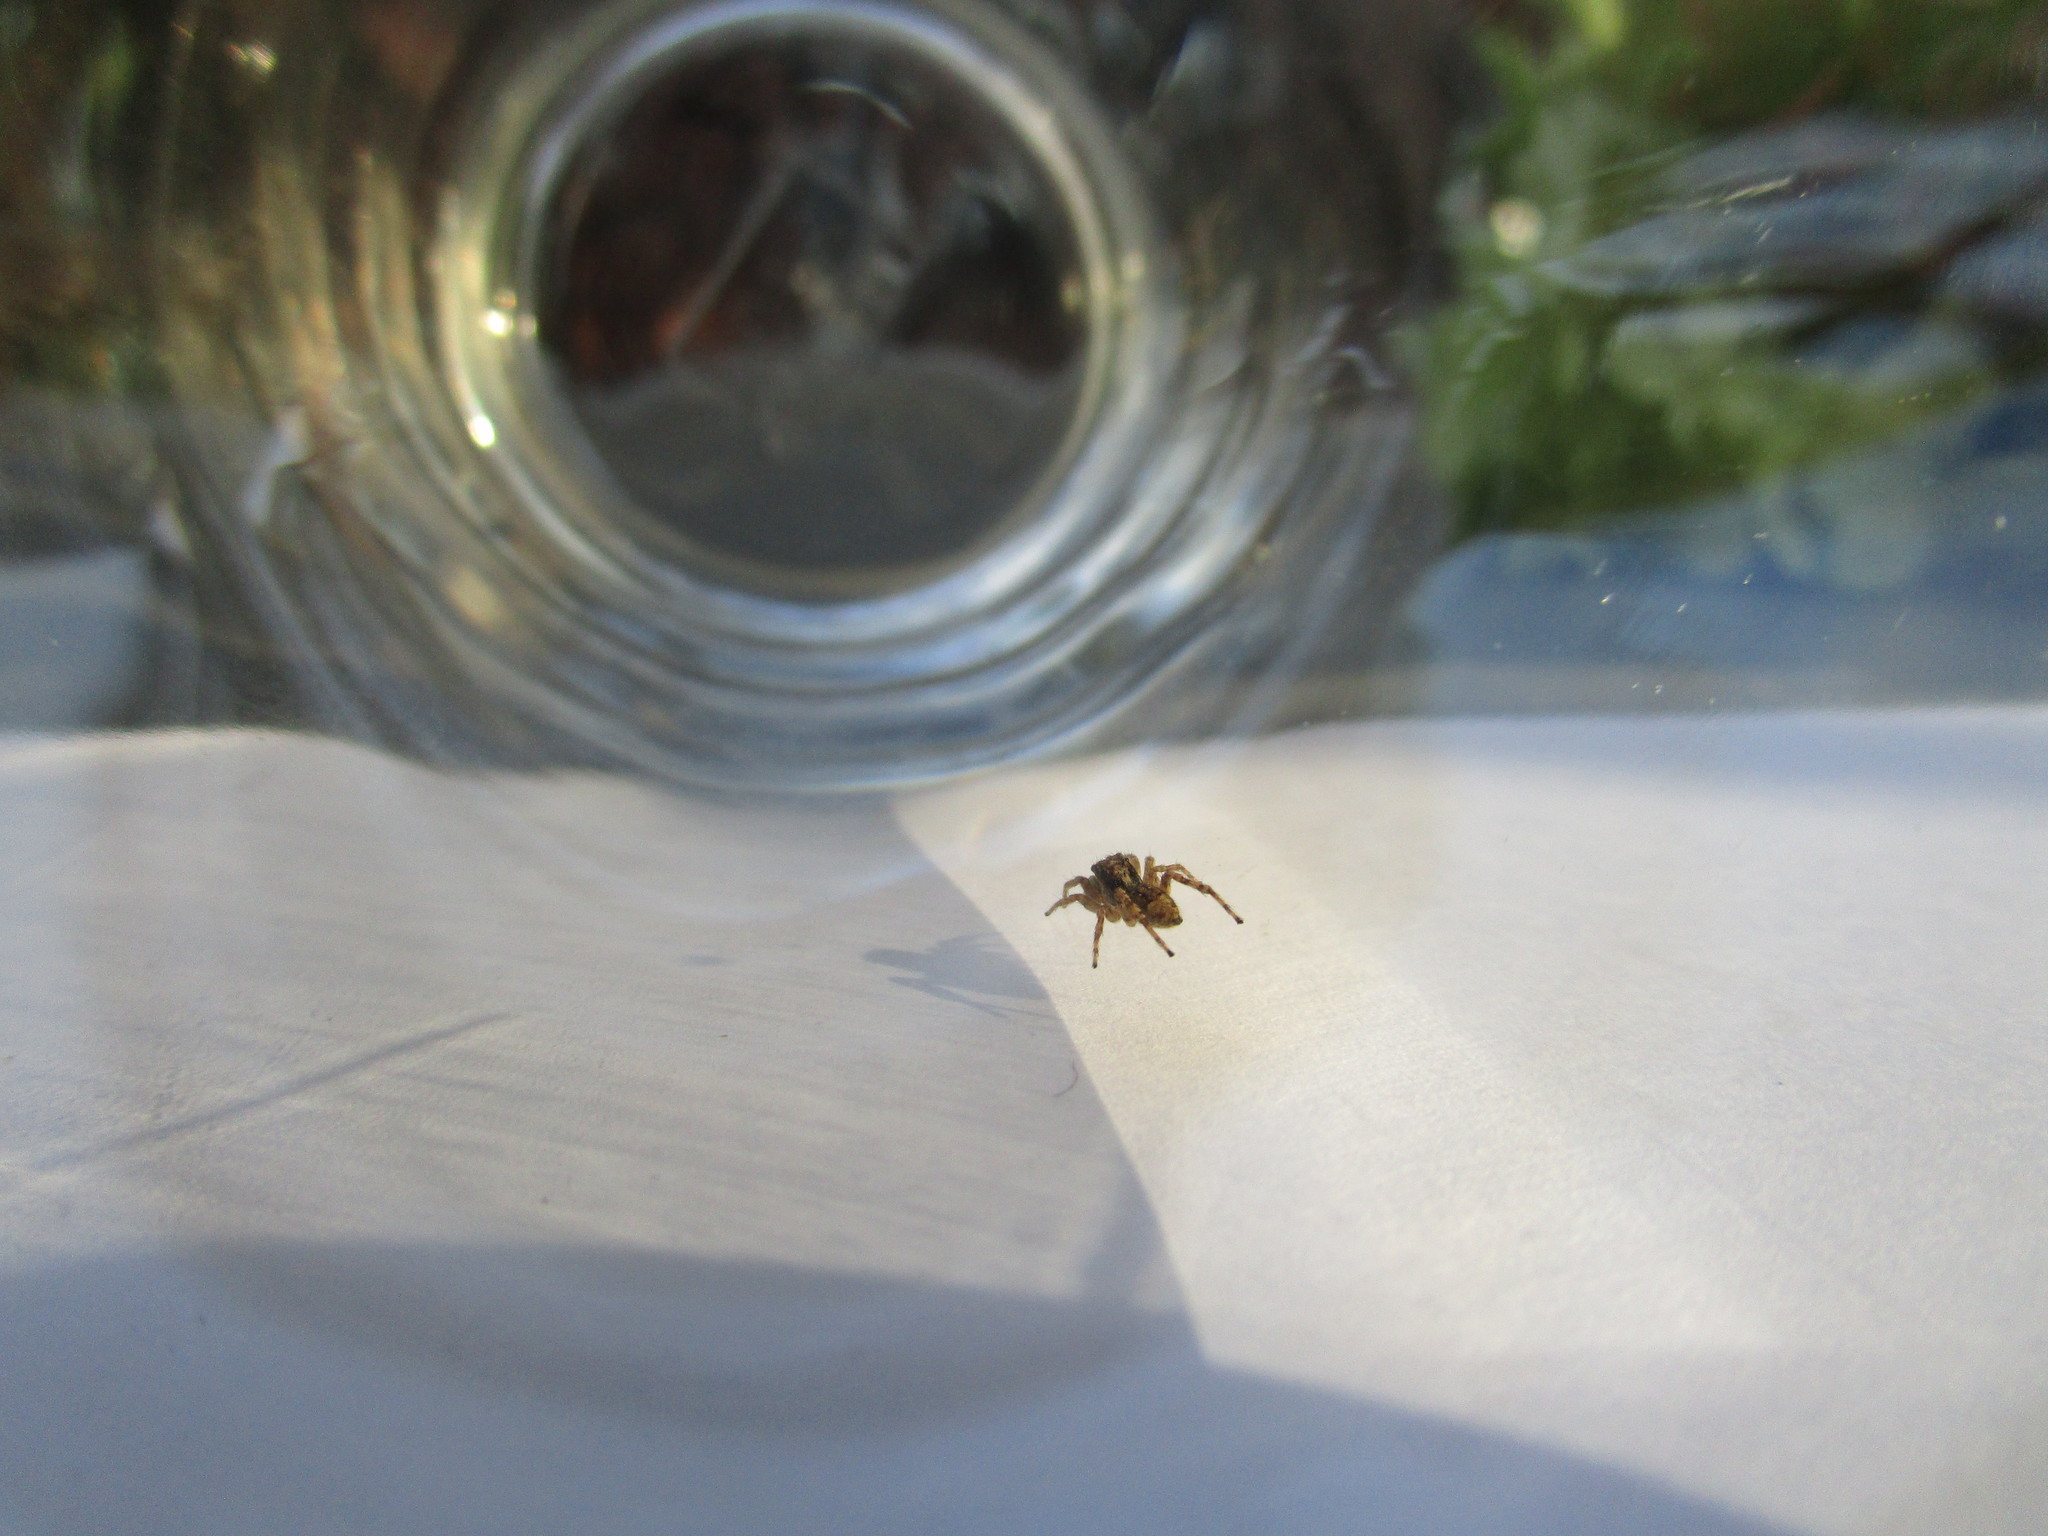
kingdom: Animalia
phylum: Arthropoda
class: Arachnida
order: Araneae
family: Salticidae
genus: Attulus
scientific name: Attulus fasciger
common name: Asiatic wall jumping spider
